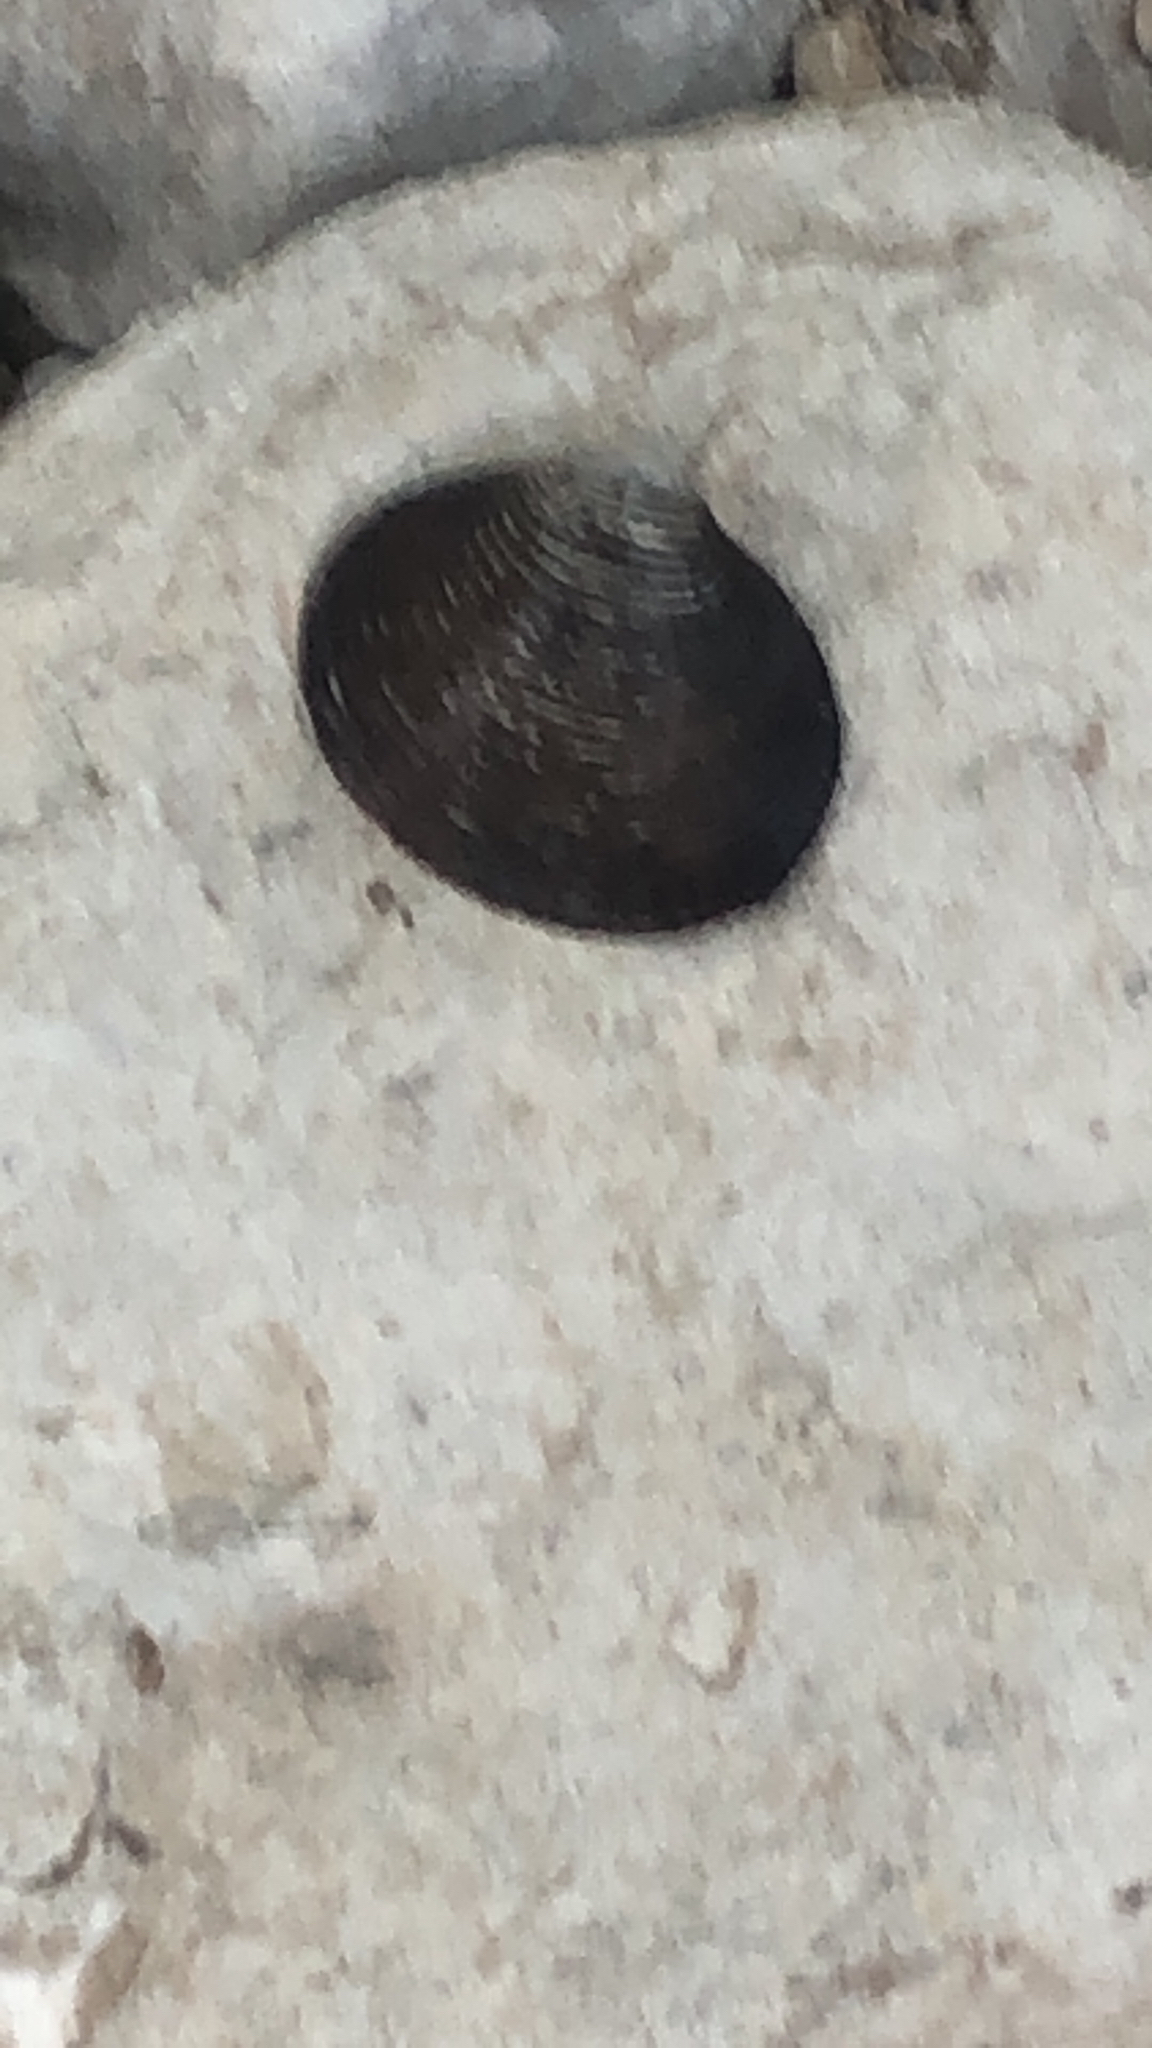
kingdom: Animalia
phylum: Mollusca
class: Bivalvia
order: Venerida
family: Cyrenidae
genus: Corbicula
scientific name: Corbicula fluminea
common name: Asian clam
